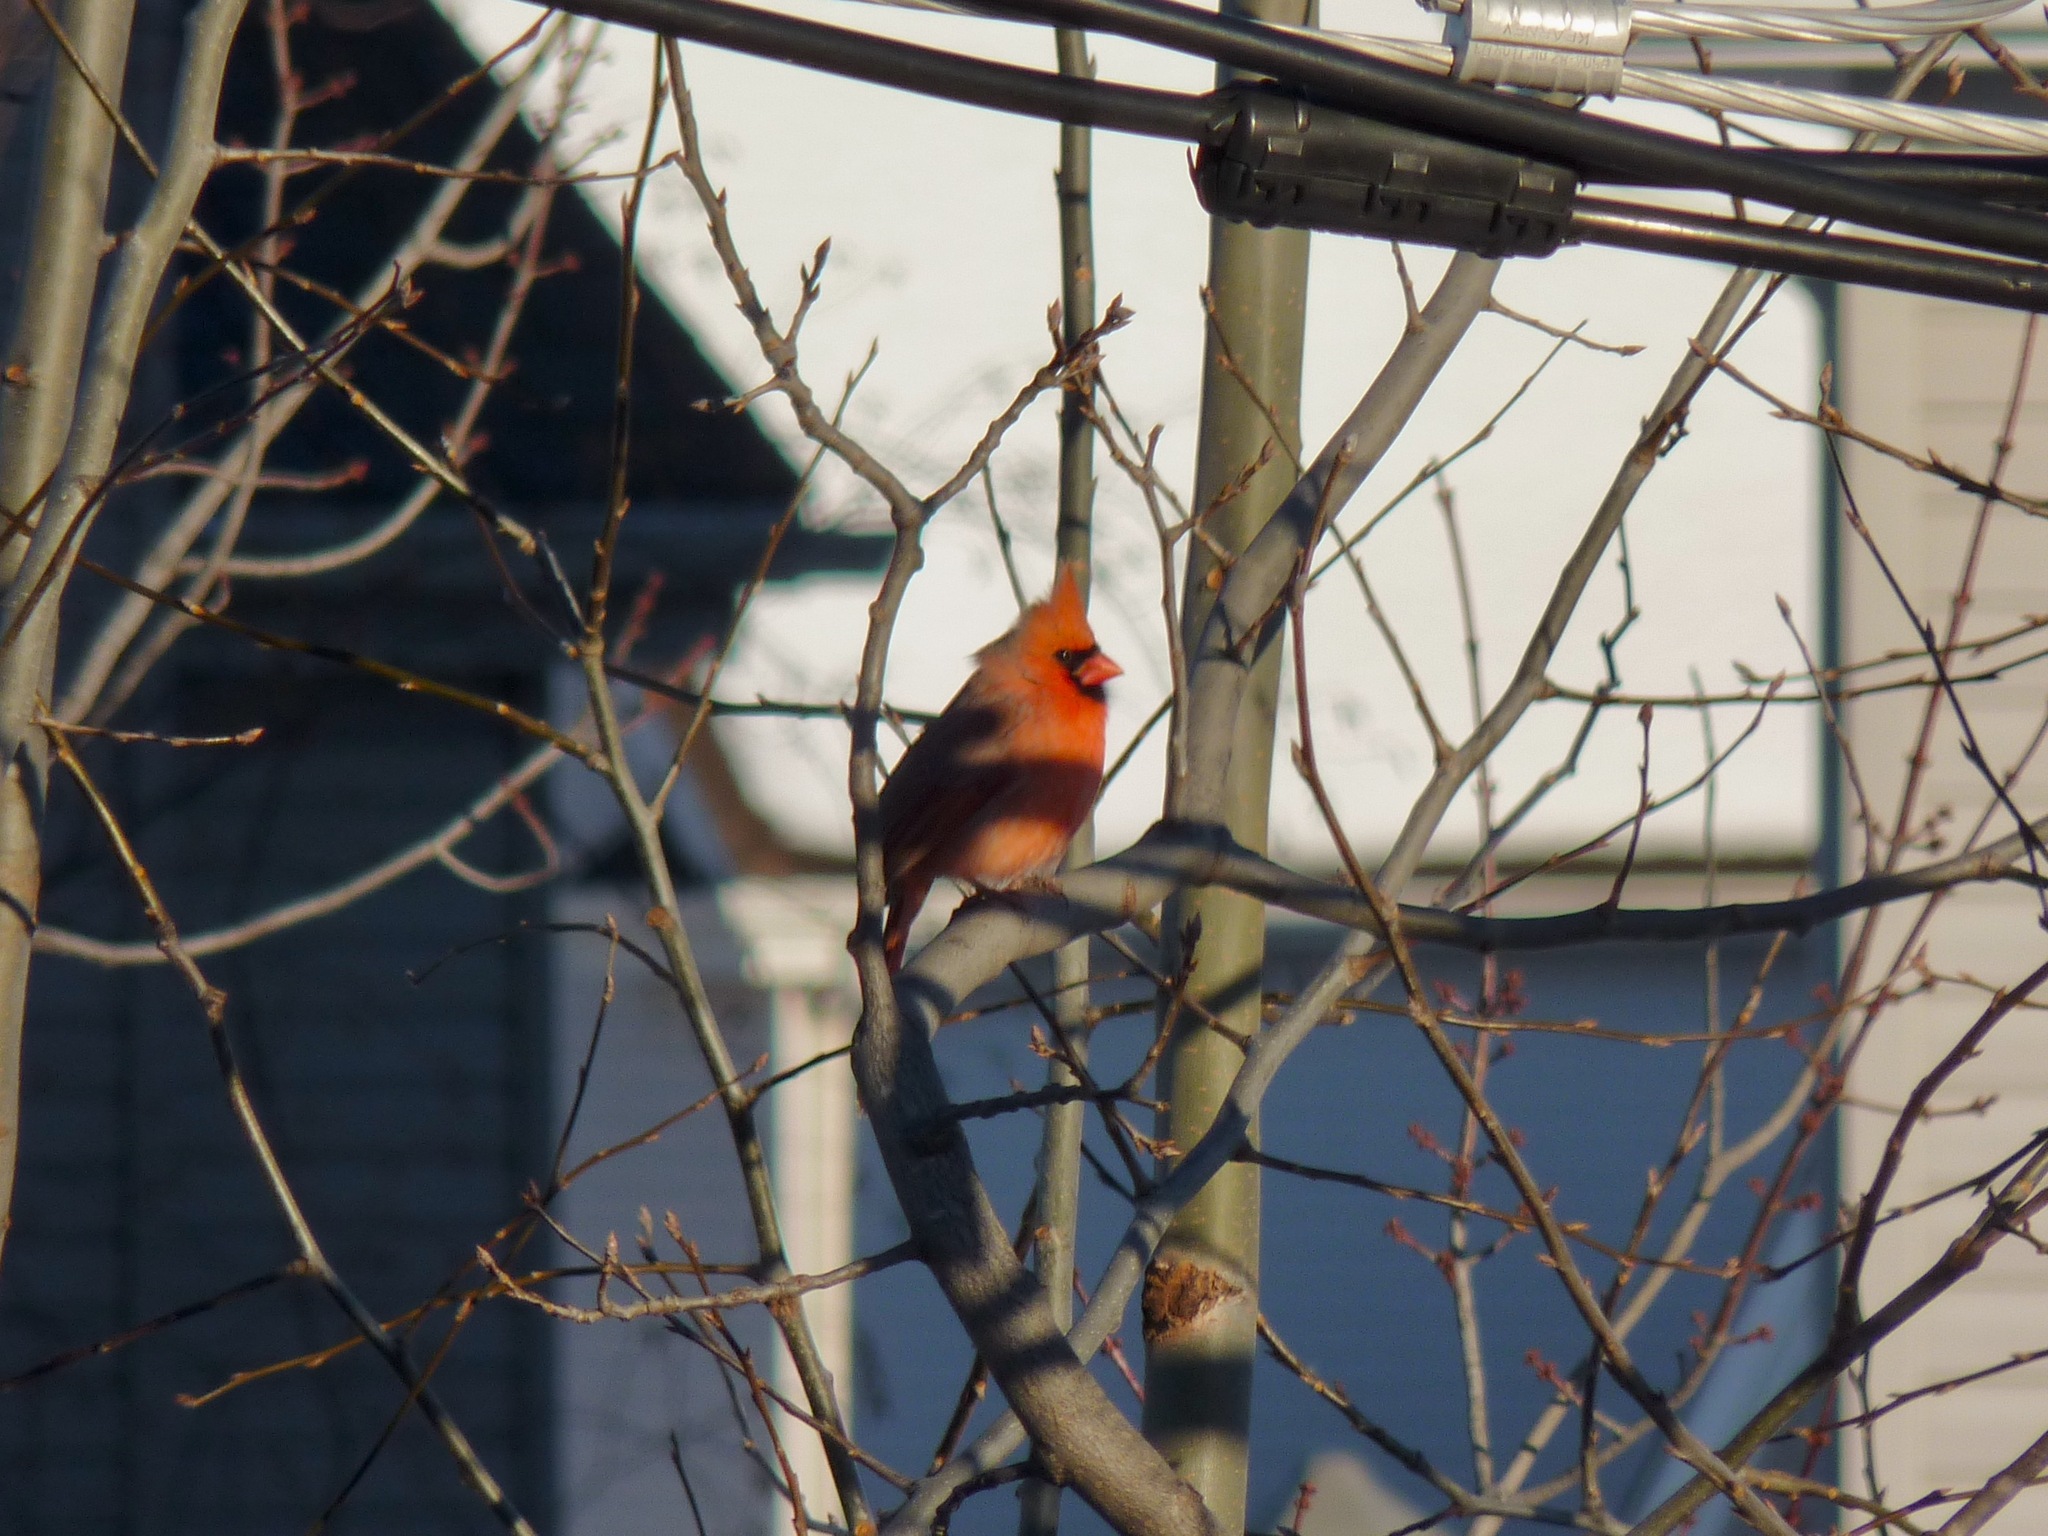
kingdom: Animalia
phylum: Chordata
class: Aves
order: Passeriformes
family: Cardinalidae
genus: Cardinalis
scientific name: Cardinalis cardinalis
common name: Northern cardinal
